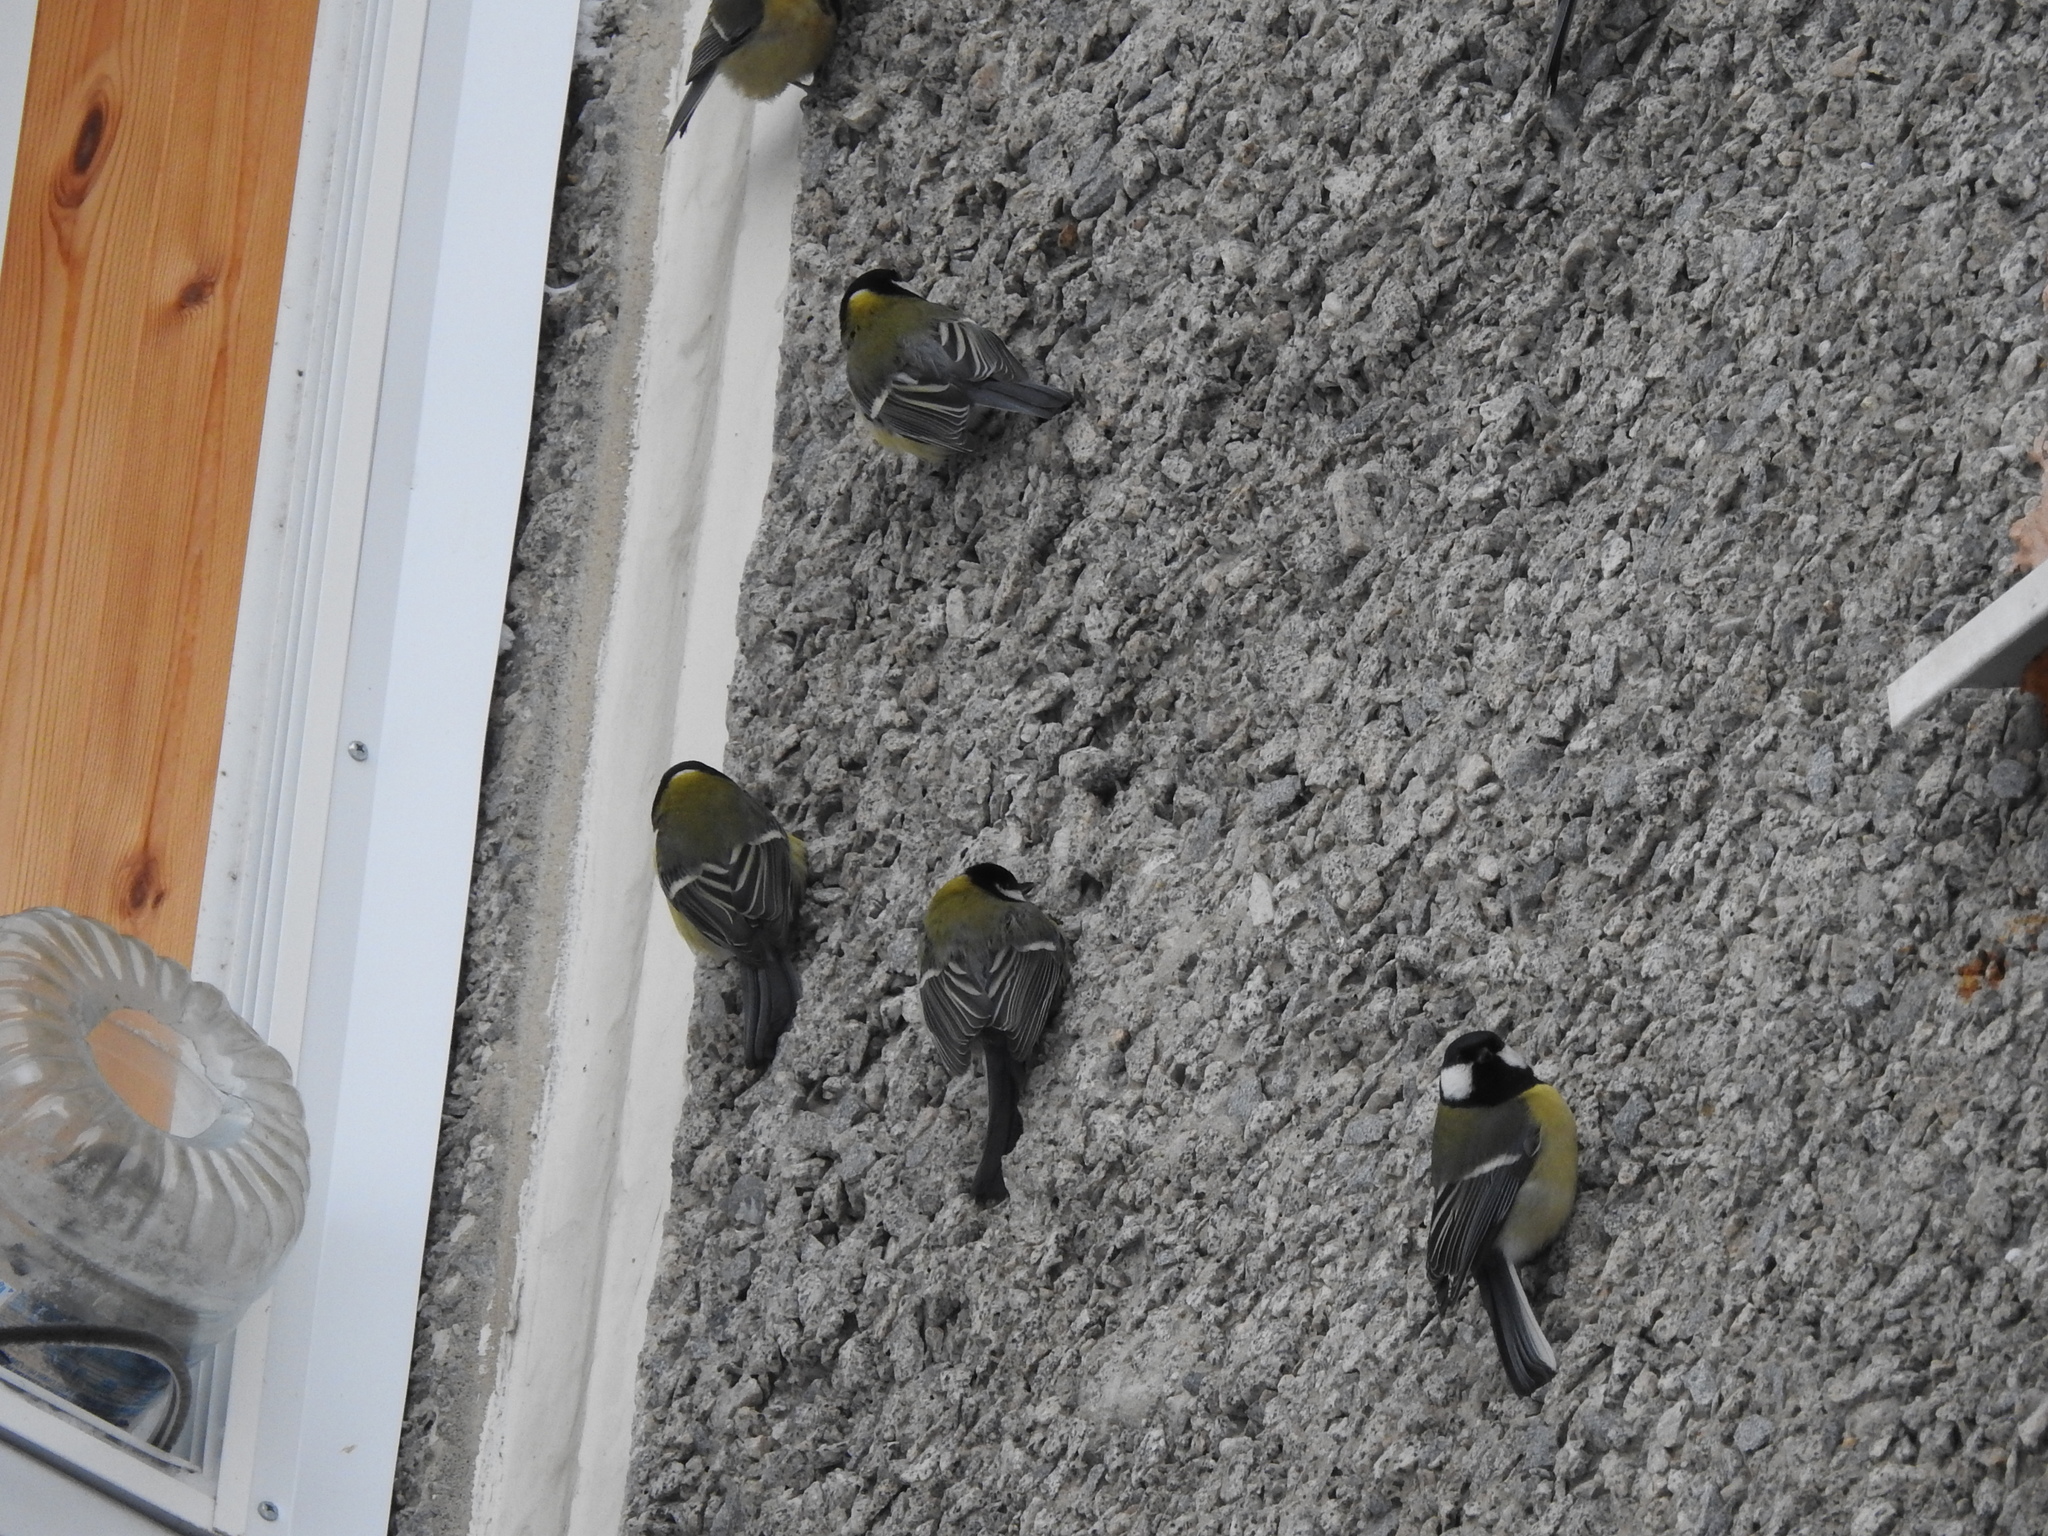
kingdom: Animalia
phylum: Chordata
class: Aves
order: Passeriformes
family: Paridae
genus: Parus
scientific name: Parus major
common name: Great tit
